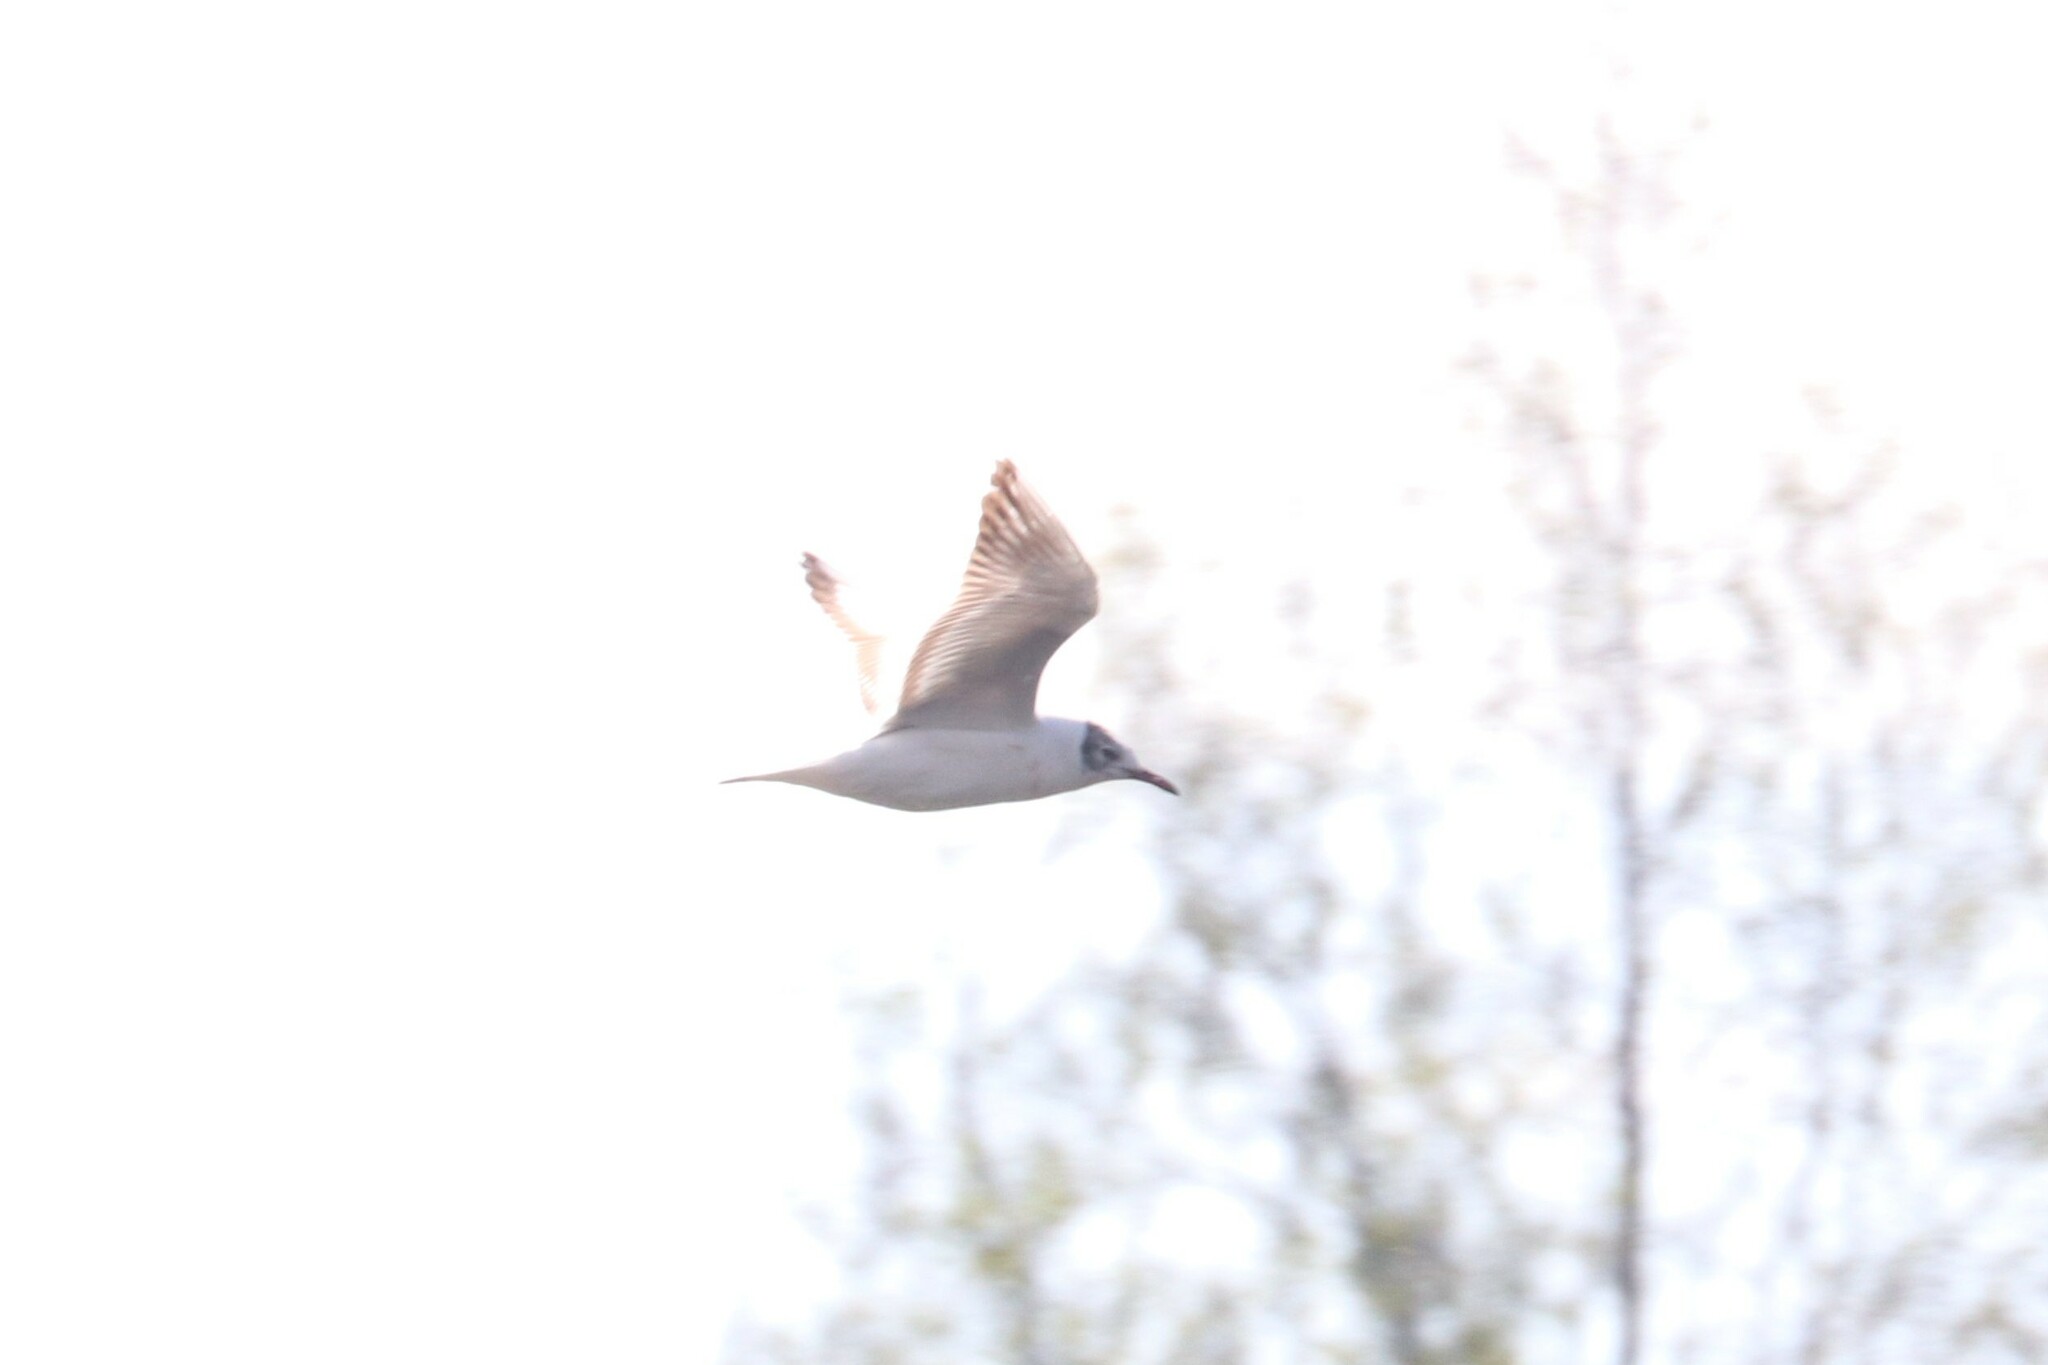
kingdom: Animalia
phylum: Chordata
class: Aves
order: Charadriiformes
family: Laridae
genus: Chroicocephalus
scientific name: Chroicocephalus ridibundus
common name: Black-headed gull
